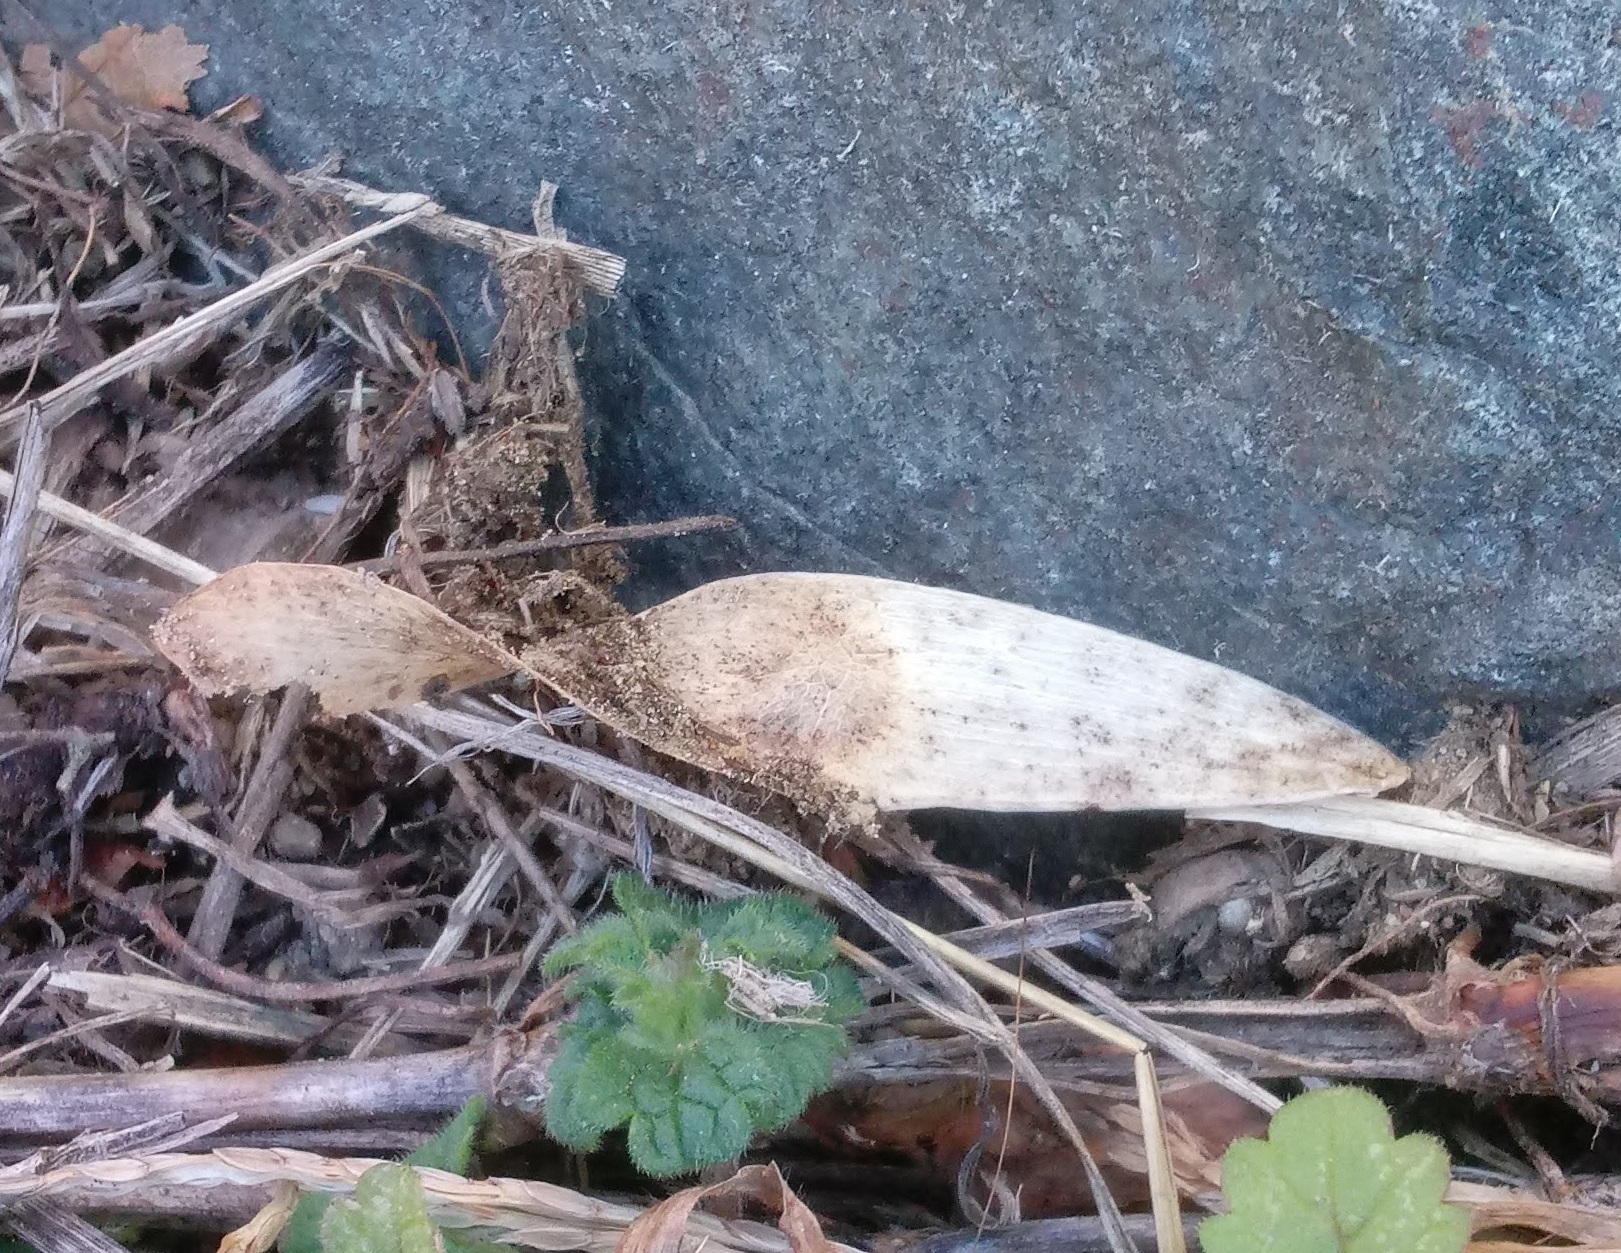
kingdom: Plantae
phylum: Tracheophyta
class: Magnoliopsida
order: Sapindales
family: Simaroubaceae
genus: Ailanthus
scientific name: Ailanthus altissima
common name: Tree-of-heaven
